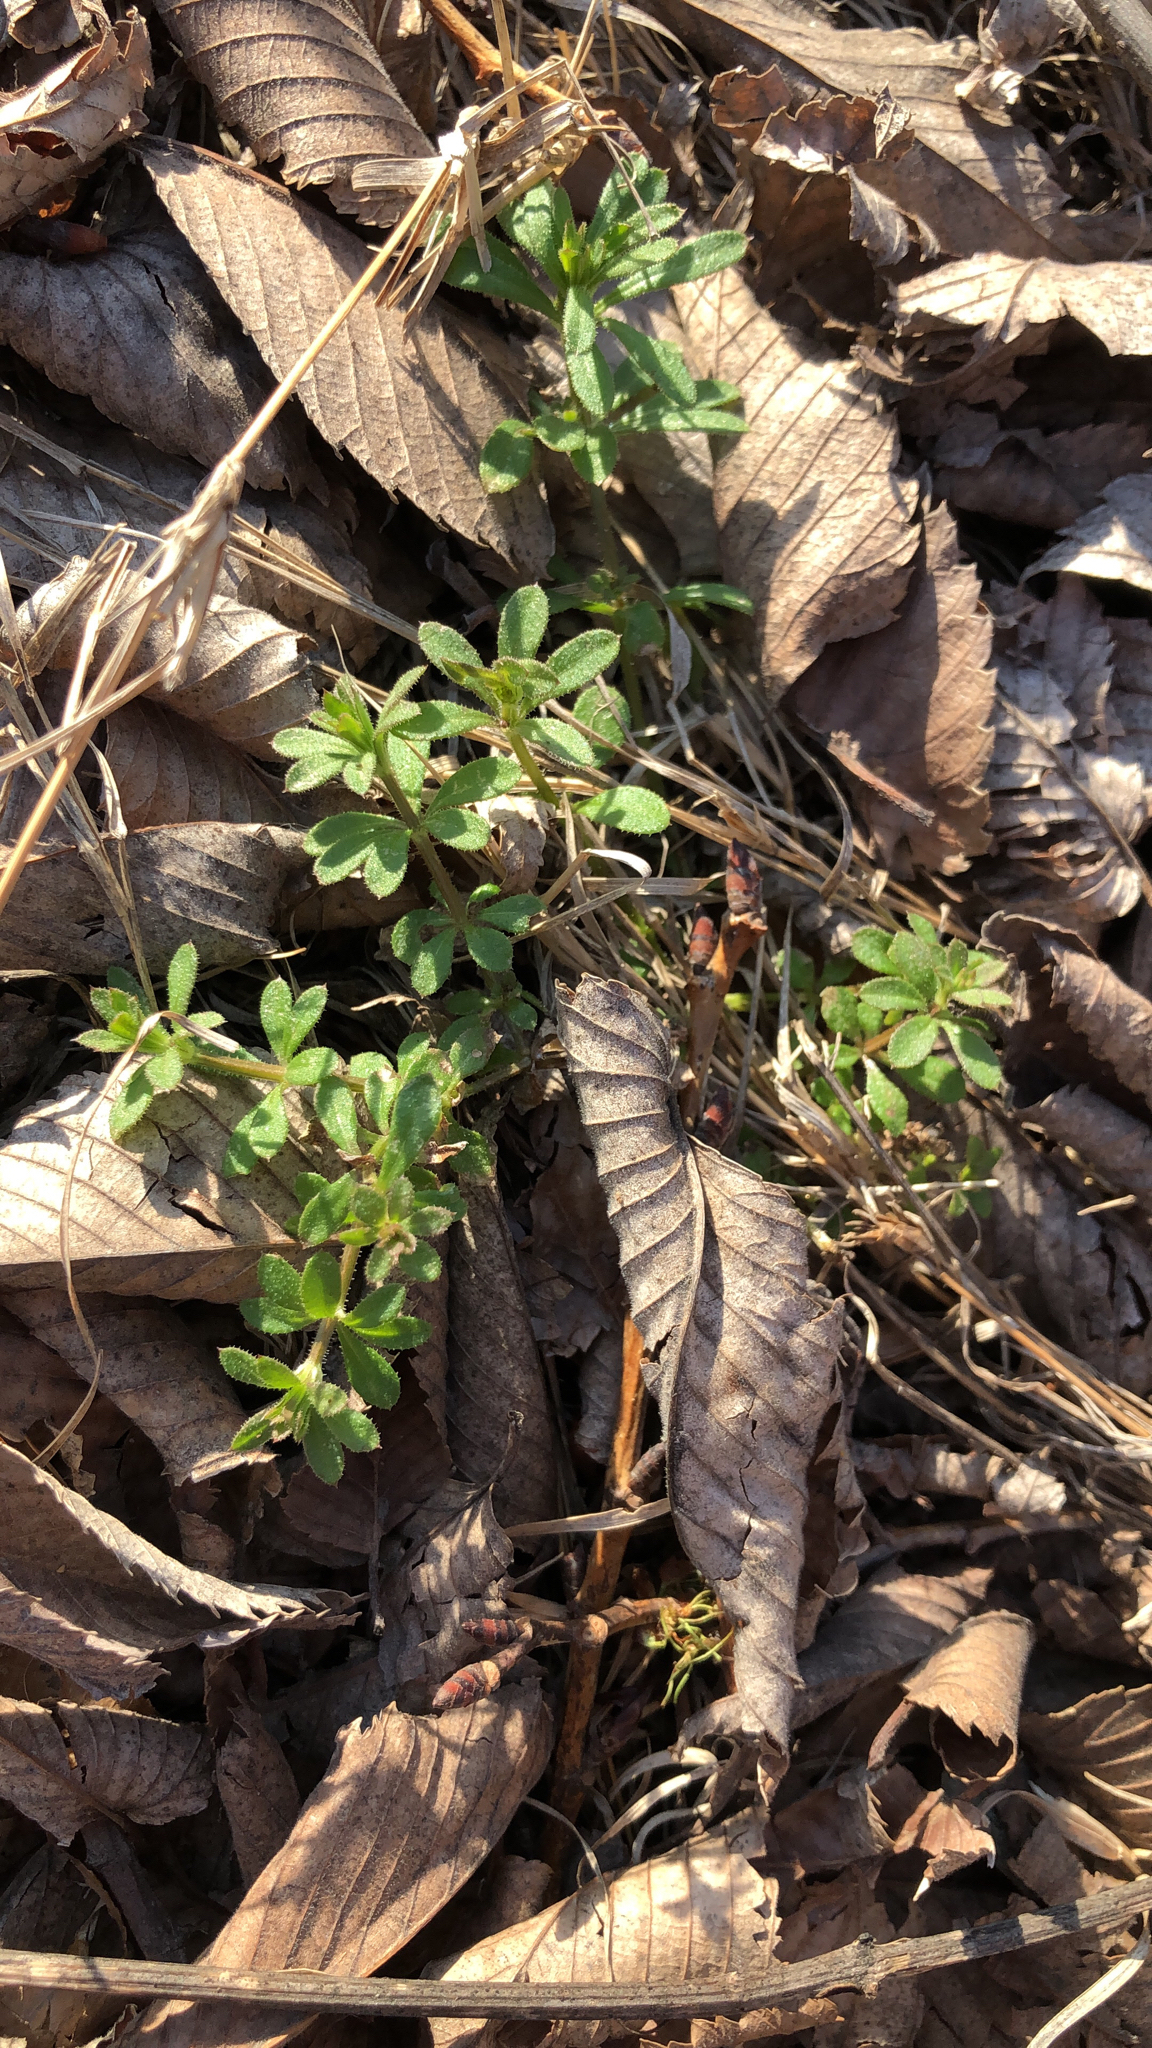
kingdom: Plantae
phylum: Tracheophyta
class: Magnoliopsida
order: Gentianales
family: Rubiaceae
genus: Galium
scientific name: Galium aparine
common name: Cleavers
